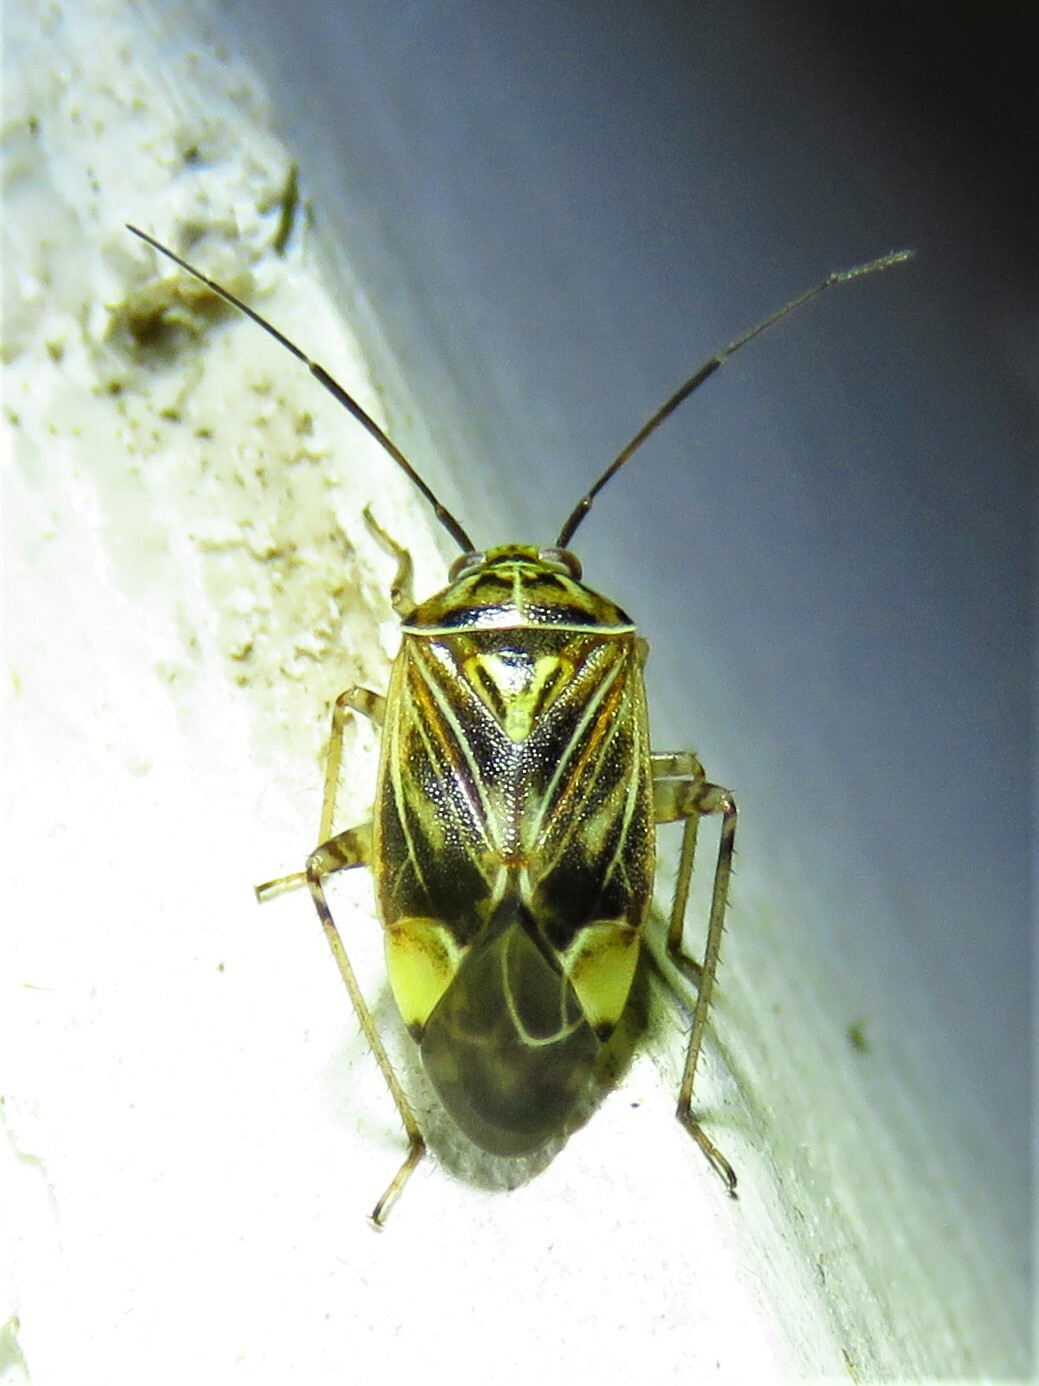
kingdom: Animalia
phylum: Arthropoda
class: Insecta
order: Hemiptera
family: Miridae
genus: Lygus
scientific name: Lygus lineolaris
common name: North american tarnished plant bug
